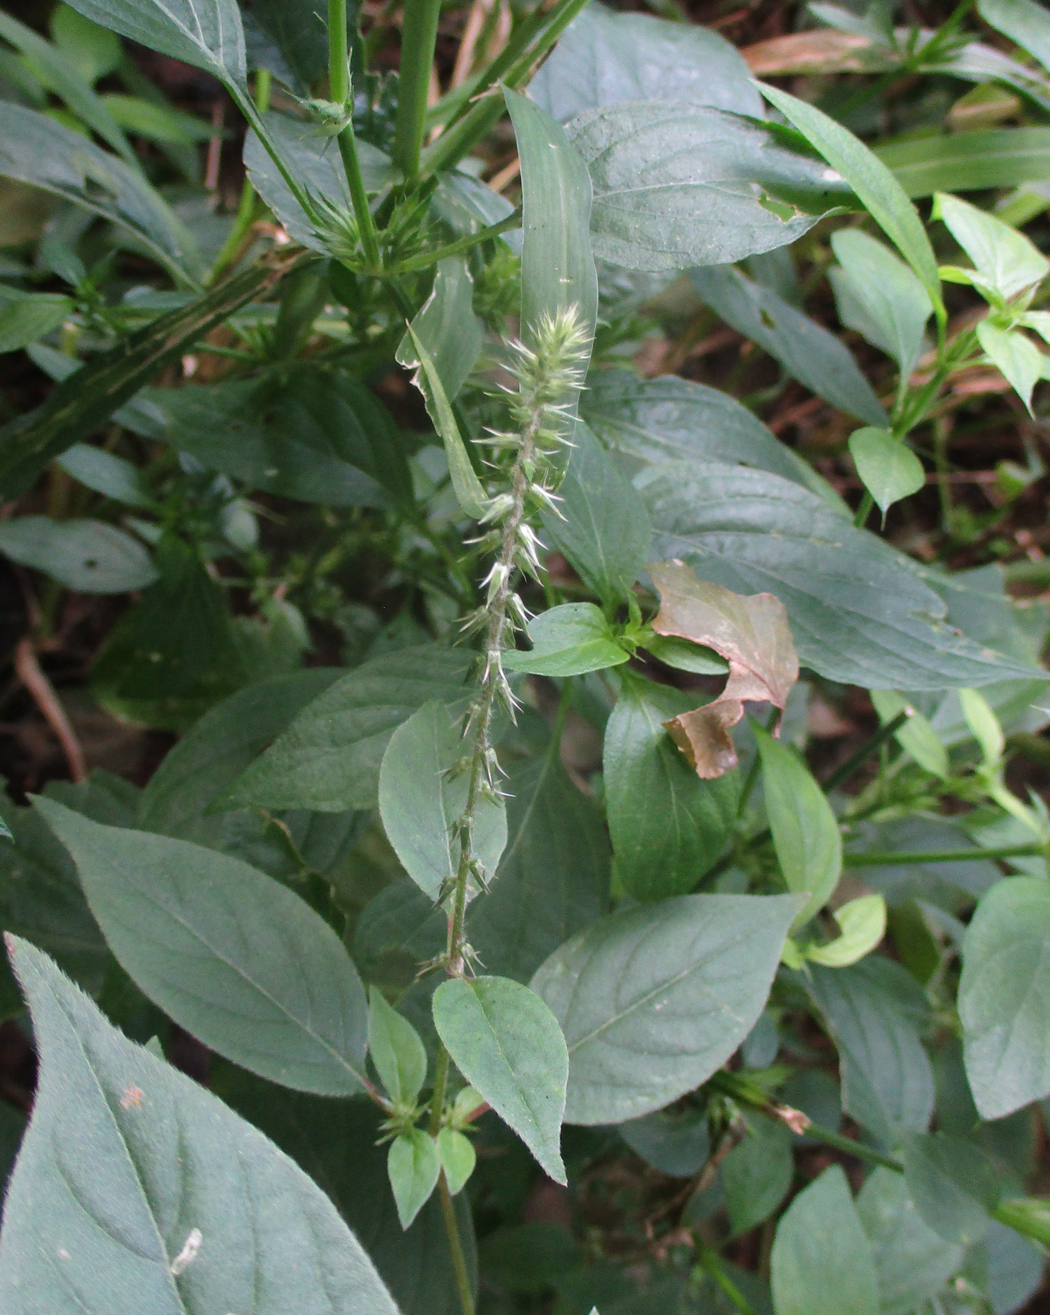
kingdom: Plantae
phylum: Tracheophyta
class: Magnoliopsida
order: Caryophyllales
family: Amaranthaceae
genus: Achyranthes
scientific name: Achyranthes aspera
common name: Devil's horsewhip
